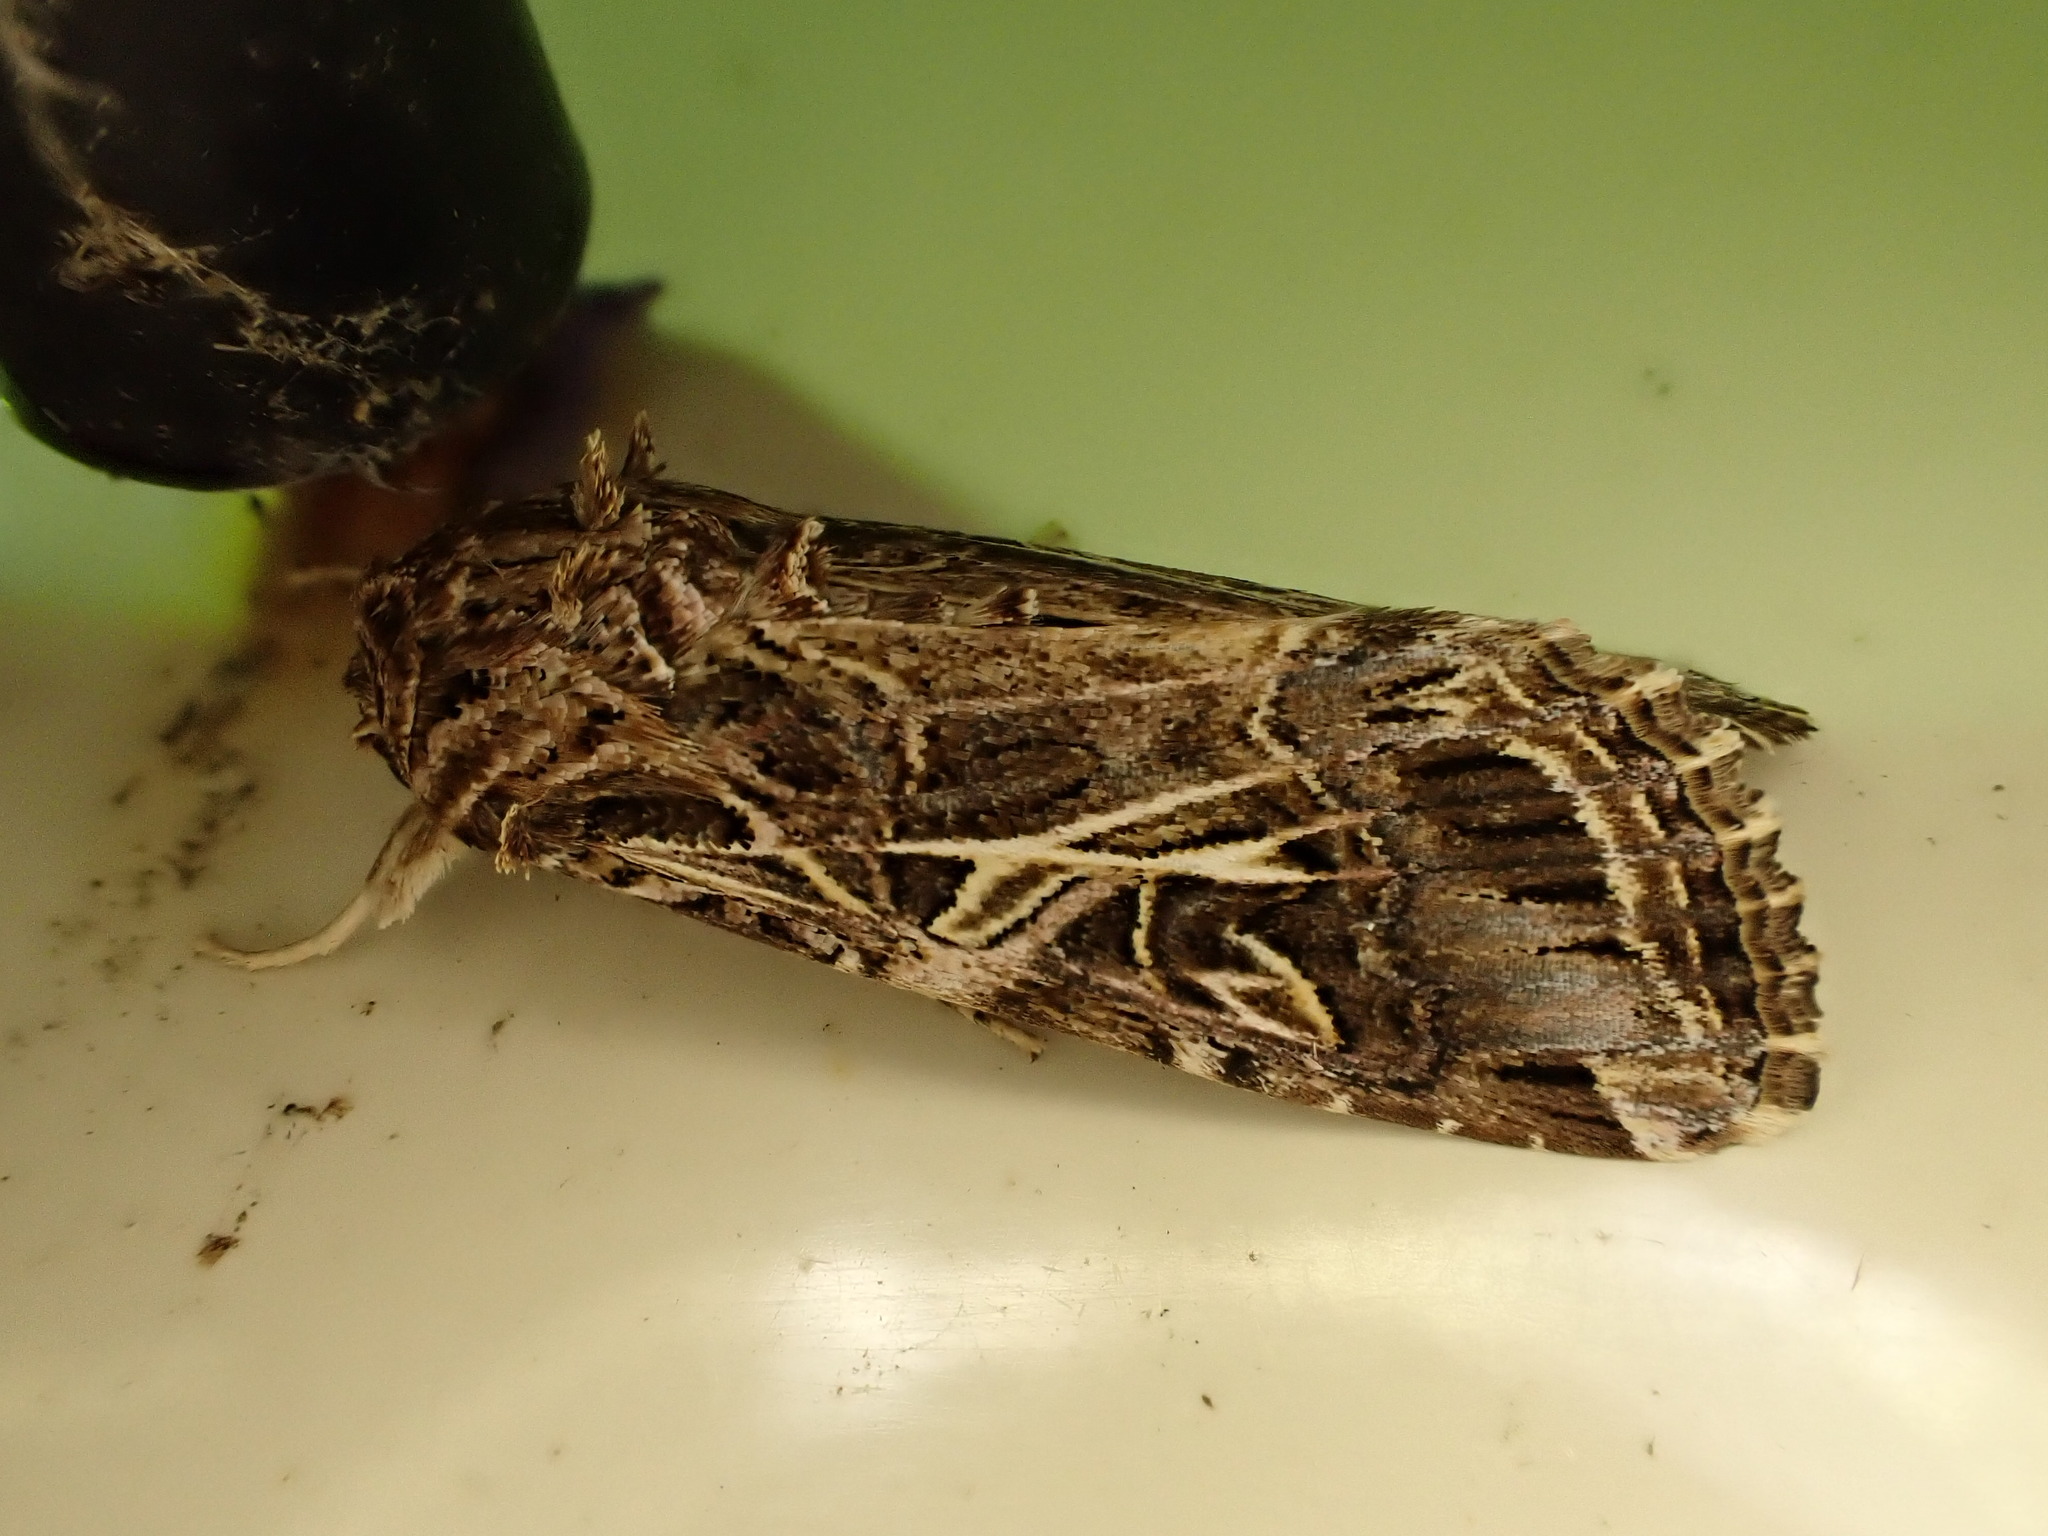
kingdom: Animalia
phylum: Arthropoda
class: Insecta
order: Lepidoptera
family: Noctuidae
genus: Spodoptera
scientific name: Spodoptera litura
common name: Asian cotton leafworm
